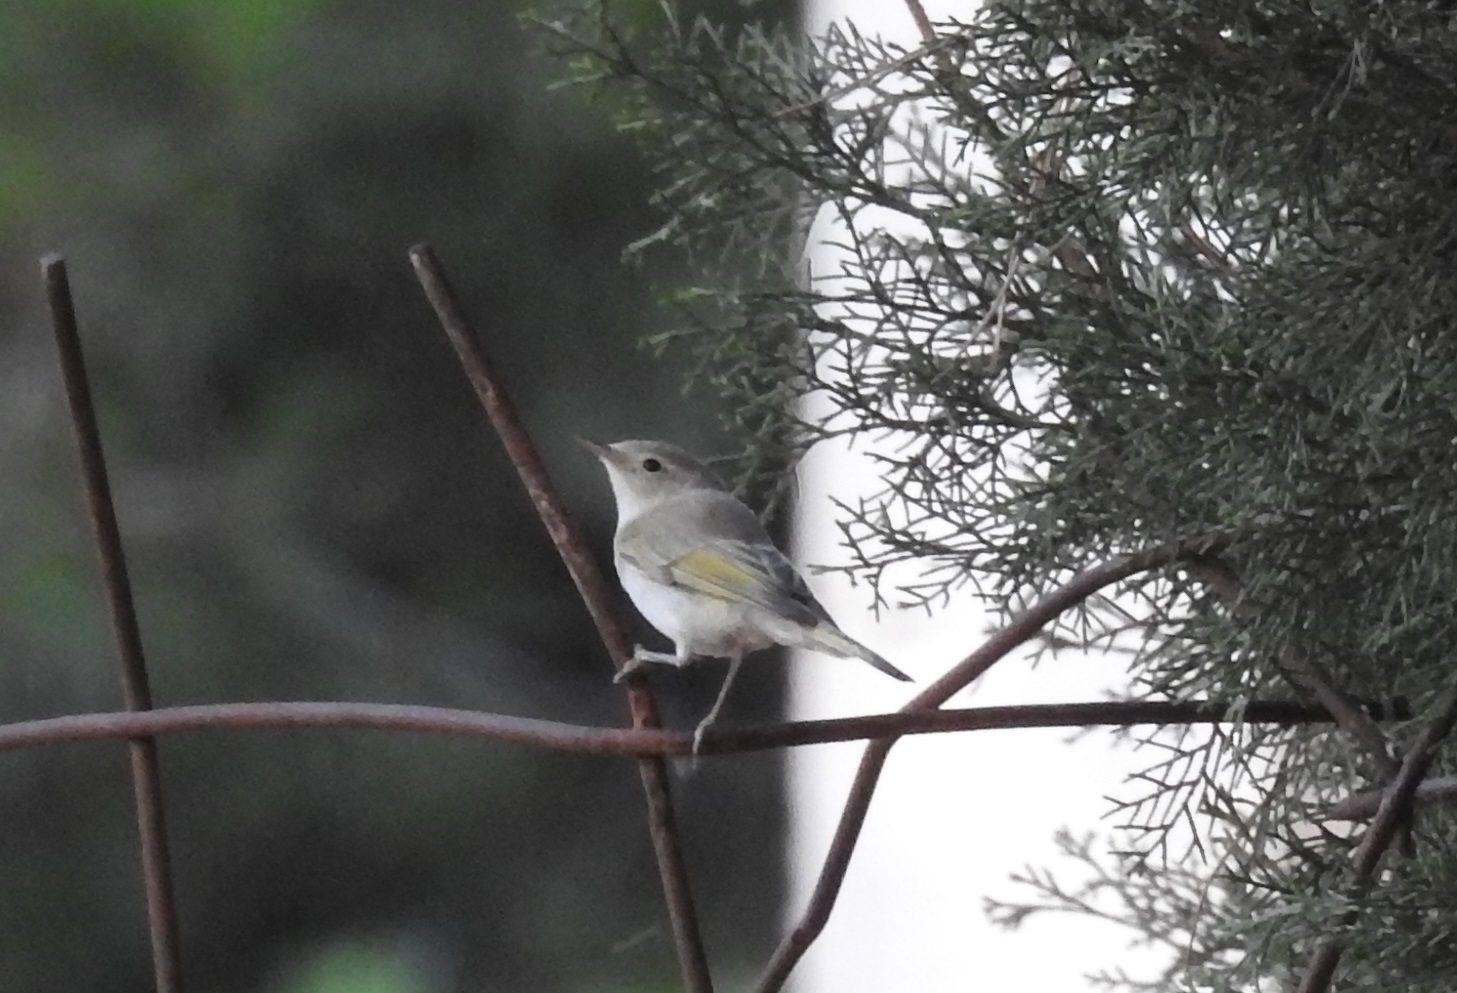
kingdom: Animalia
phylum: Chordata
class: Aves
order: Passeriformes
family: Phylloscopidae
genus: Phylloscopus
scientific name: Phylloscopus bonelli
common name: Western bonelli's warbler
